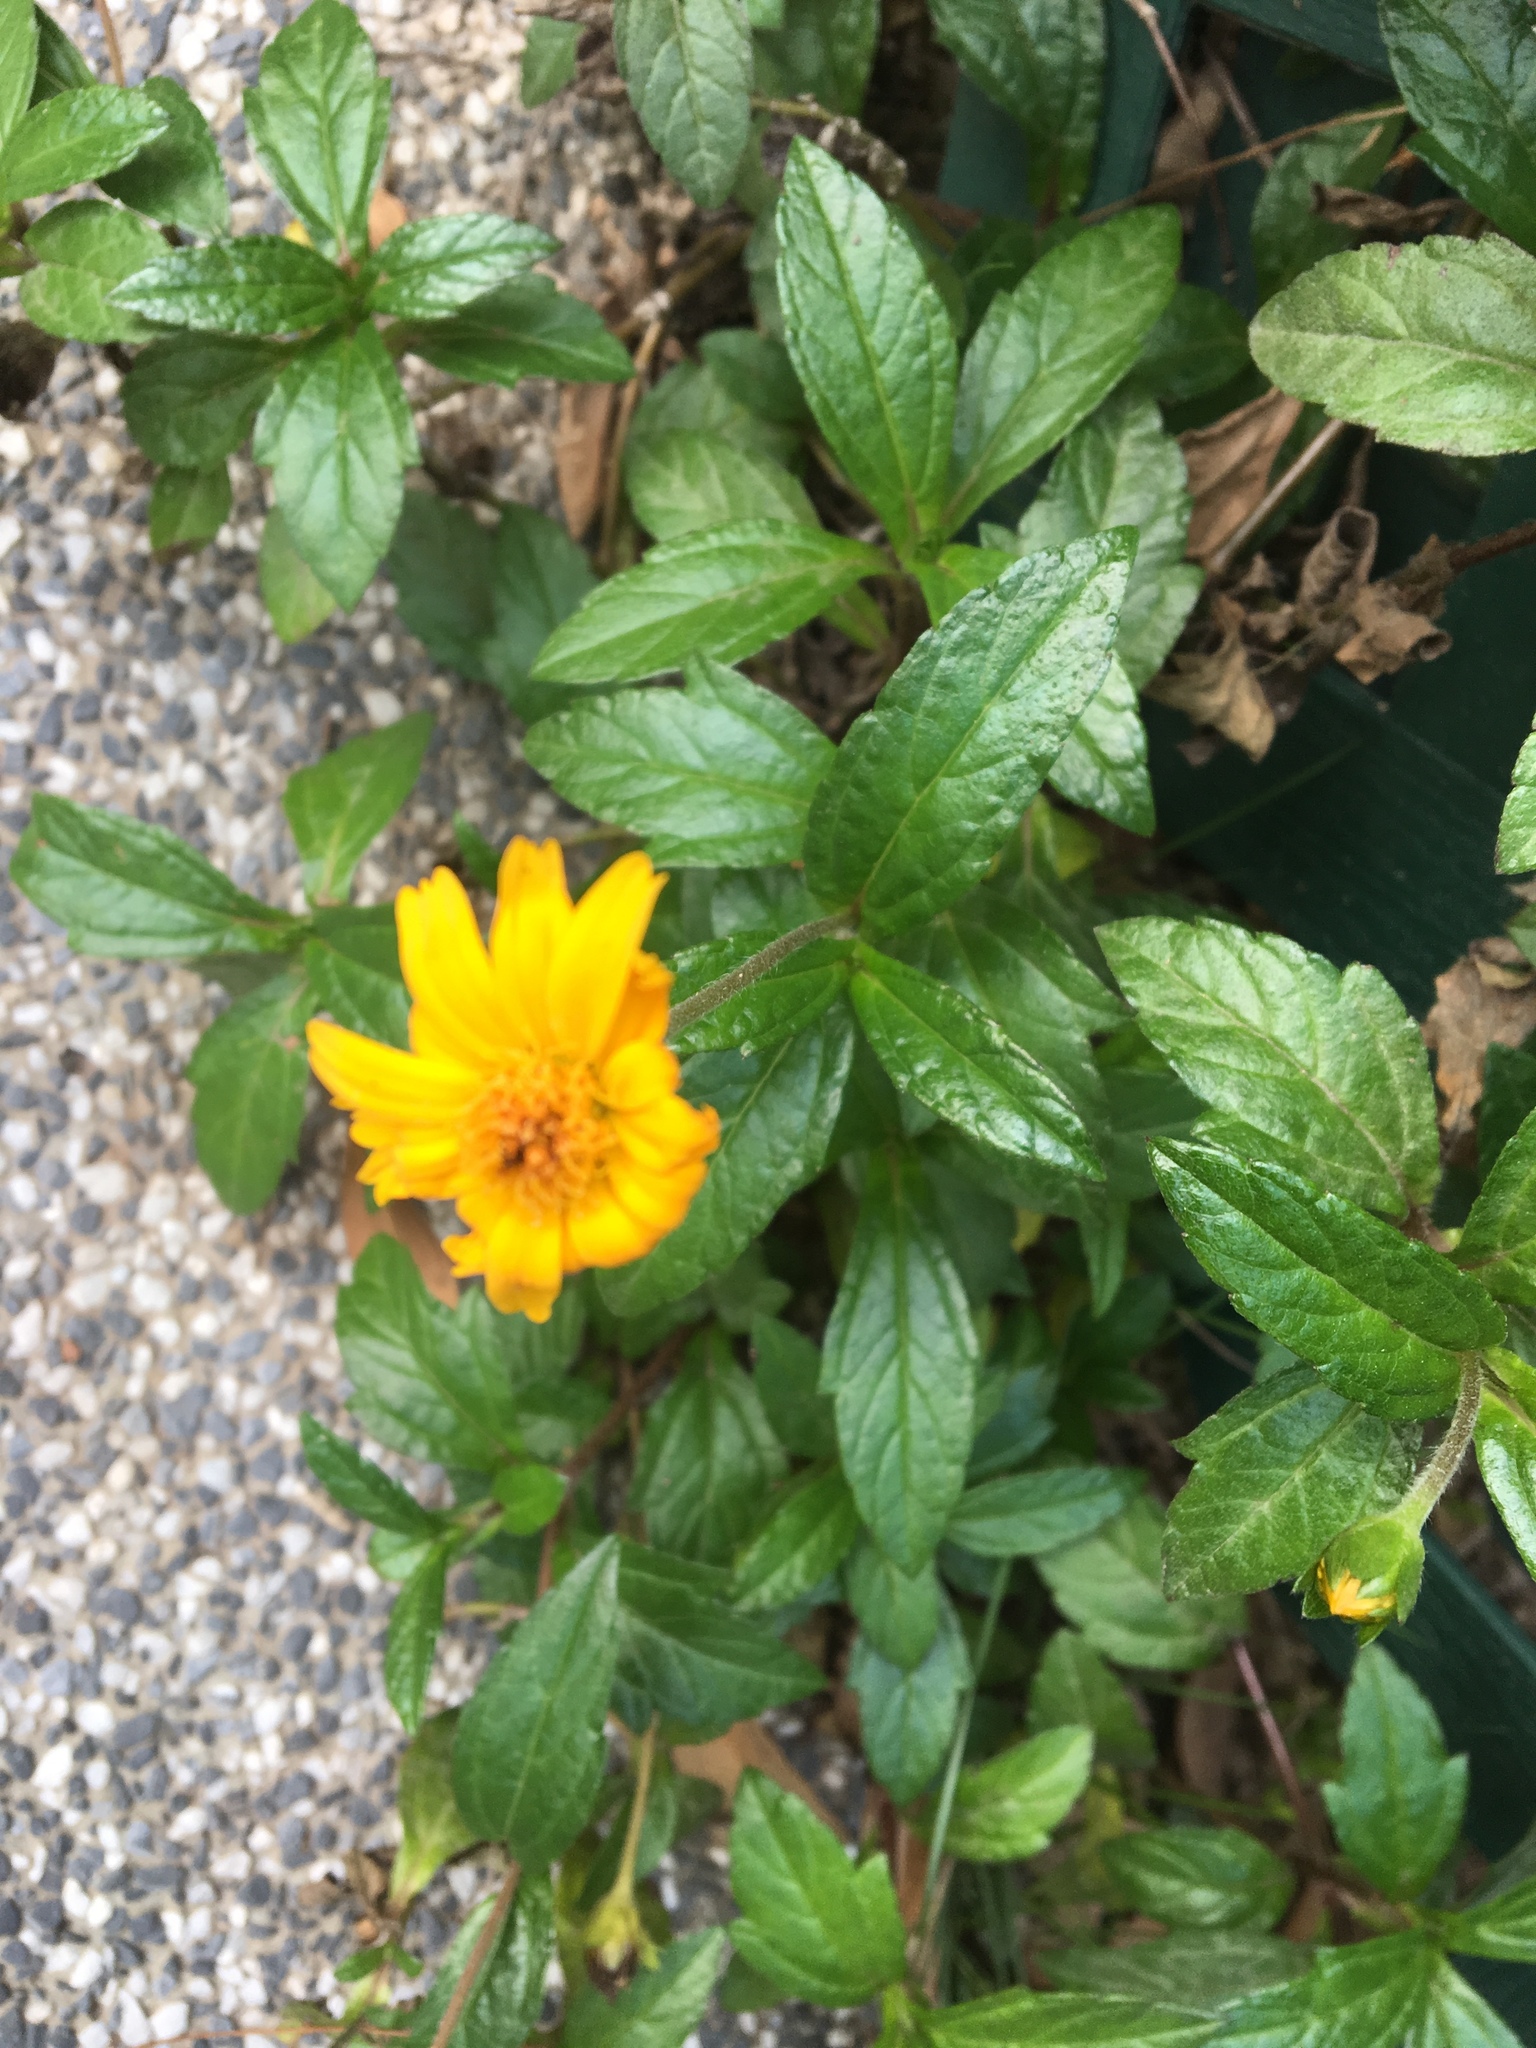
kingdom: Plantae
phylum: Tracheophyta
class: Magnoliopsida
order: Asterales
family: Asteraceae
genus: Sphagneticola
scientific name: Sphagneticola trilobata
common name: Bay biscayne creeping-oxeye
